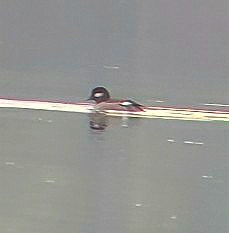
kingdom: Animalia
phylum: Chordata
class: Aves
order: Anseriformes
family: Anatidae
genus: Bucephala
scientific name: Bucephala albeola
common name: Bufflehead
